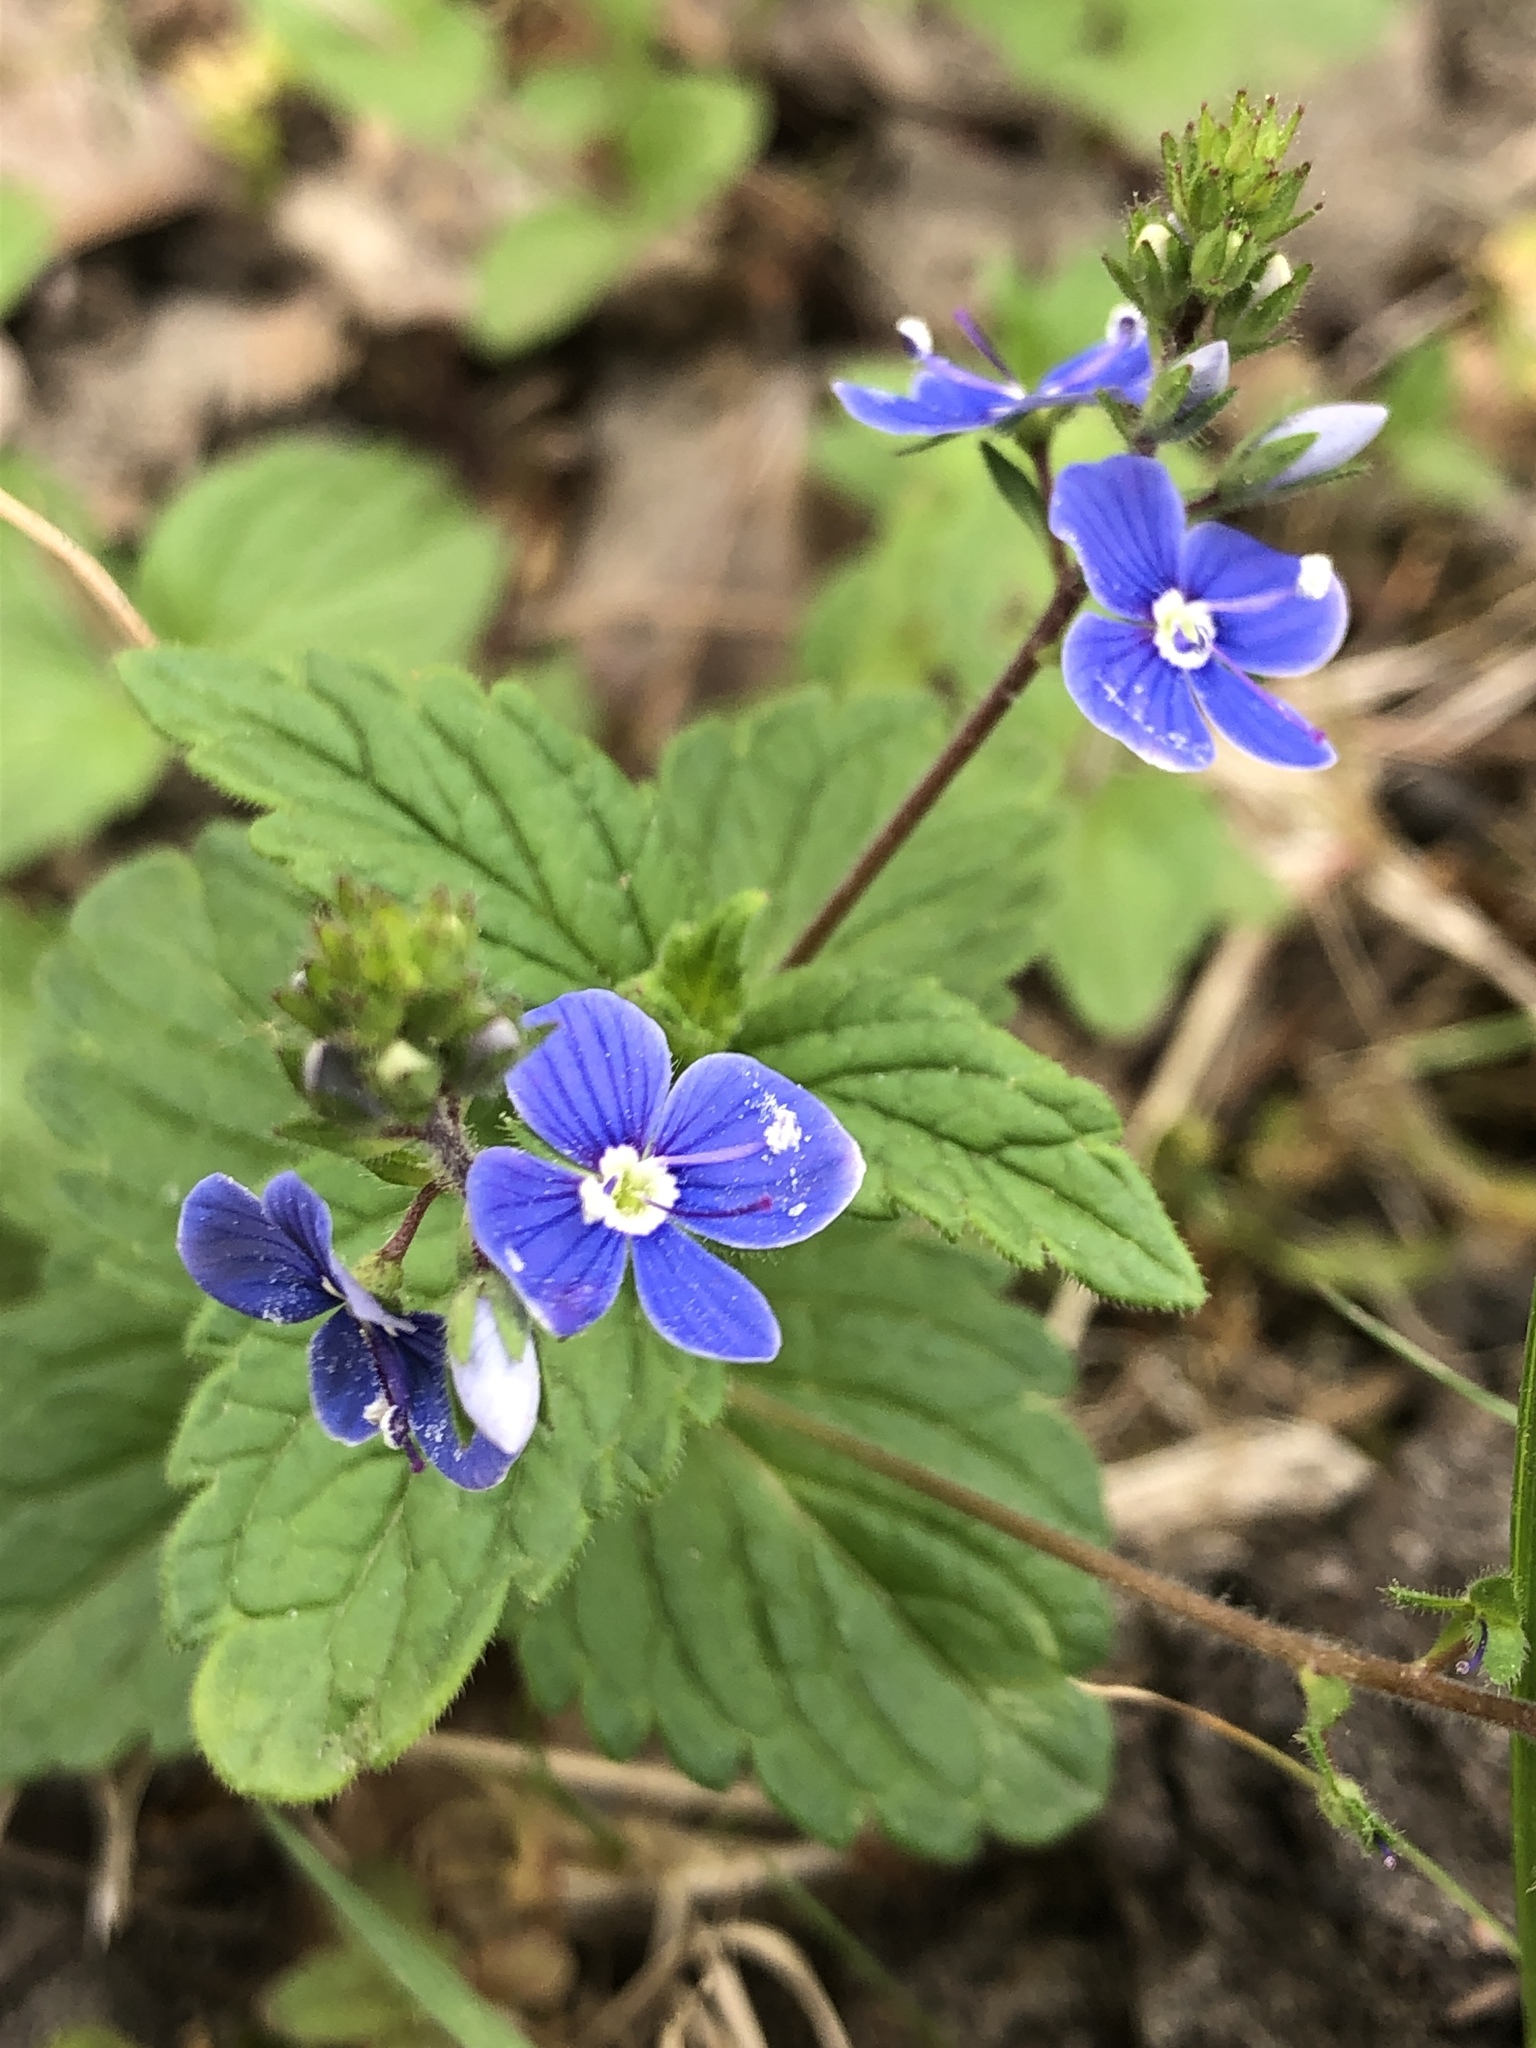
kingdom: Plantae
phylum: Tracheophyta
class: Magnoliopsida
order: Lamiales
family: Plantaginaceae
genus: Veronica
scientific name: Veronica chamaedrys
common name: Germander speedwell
